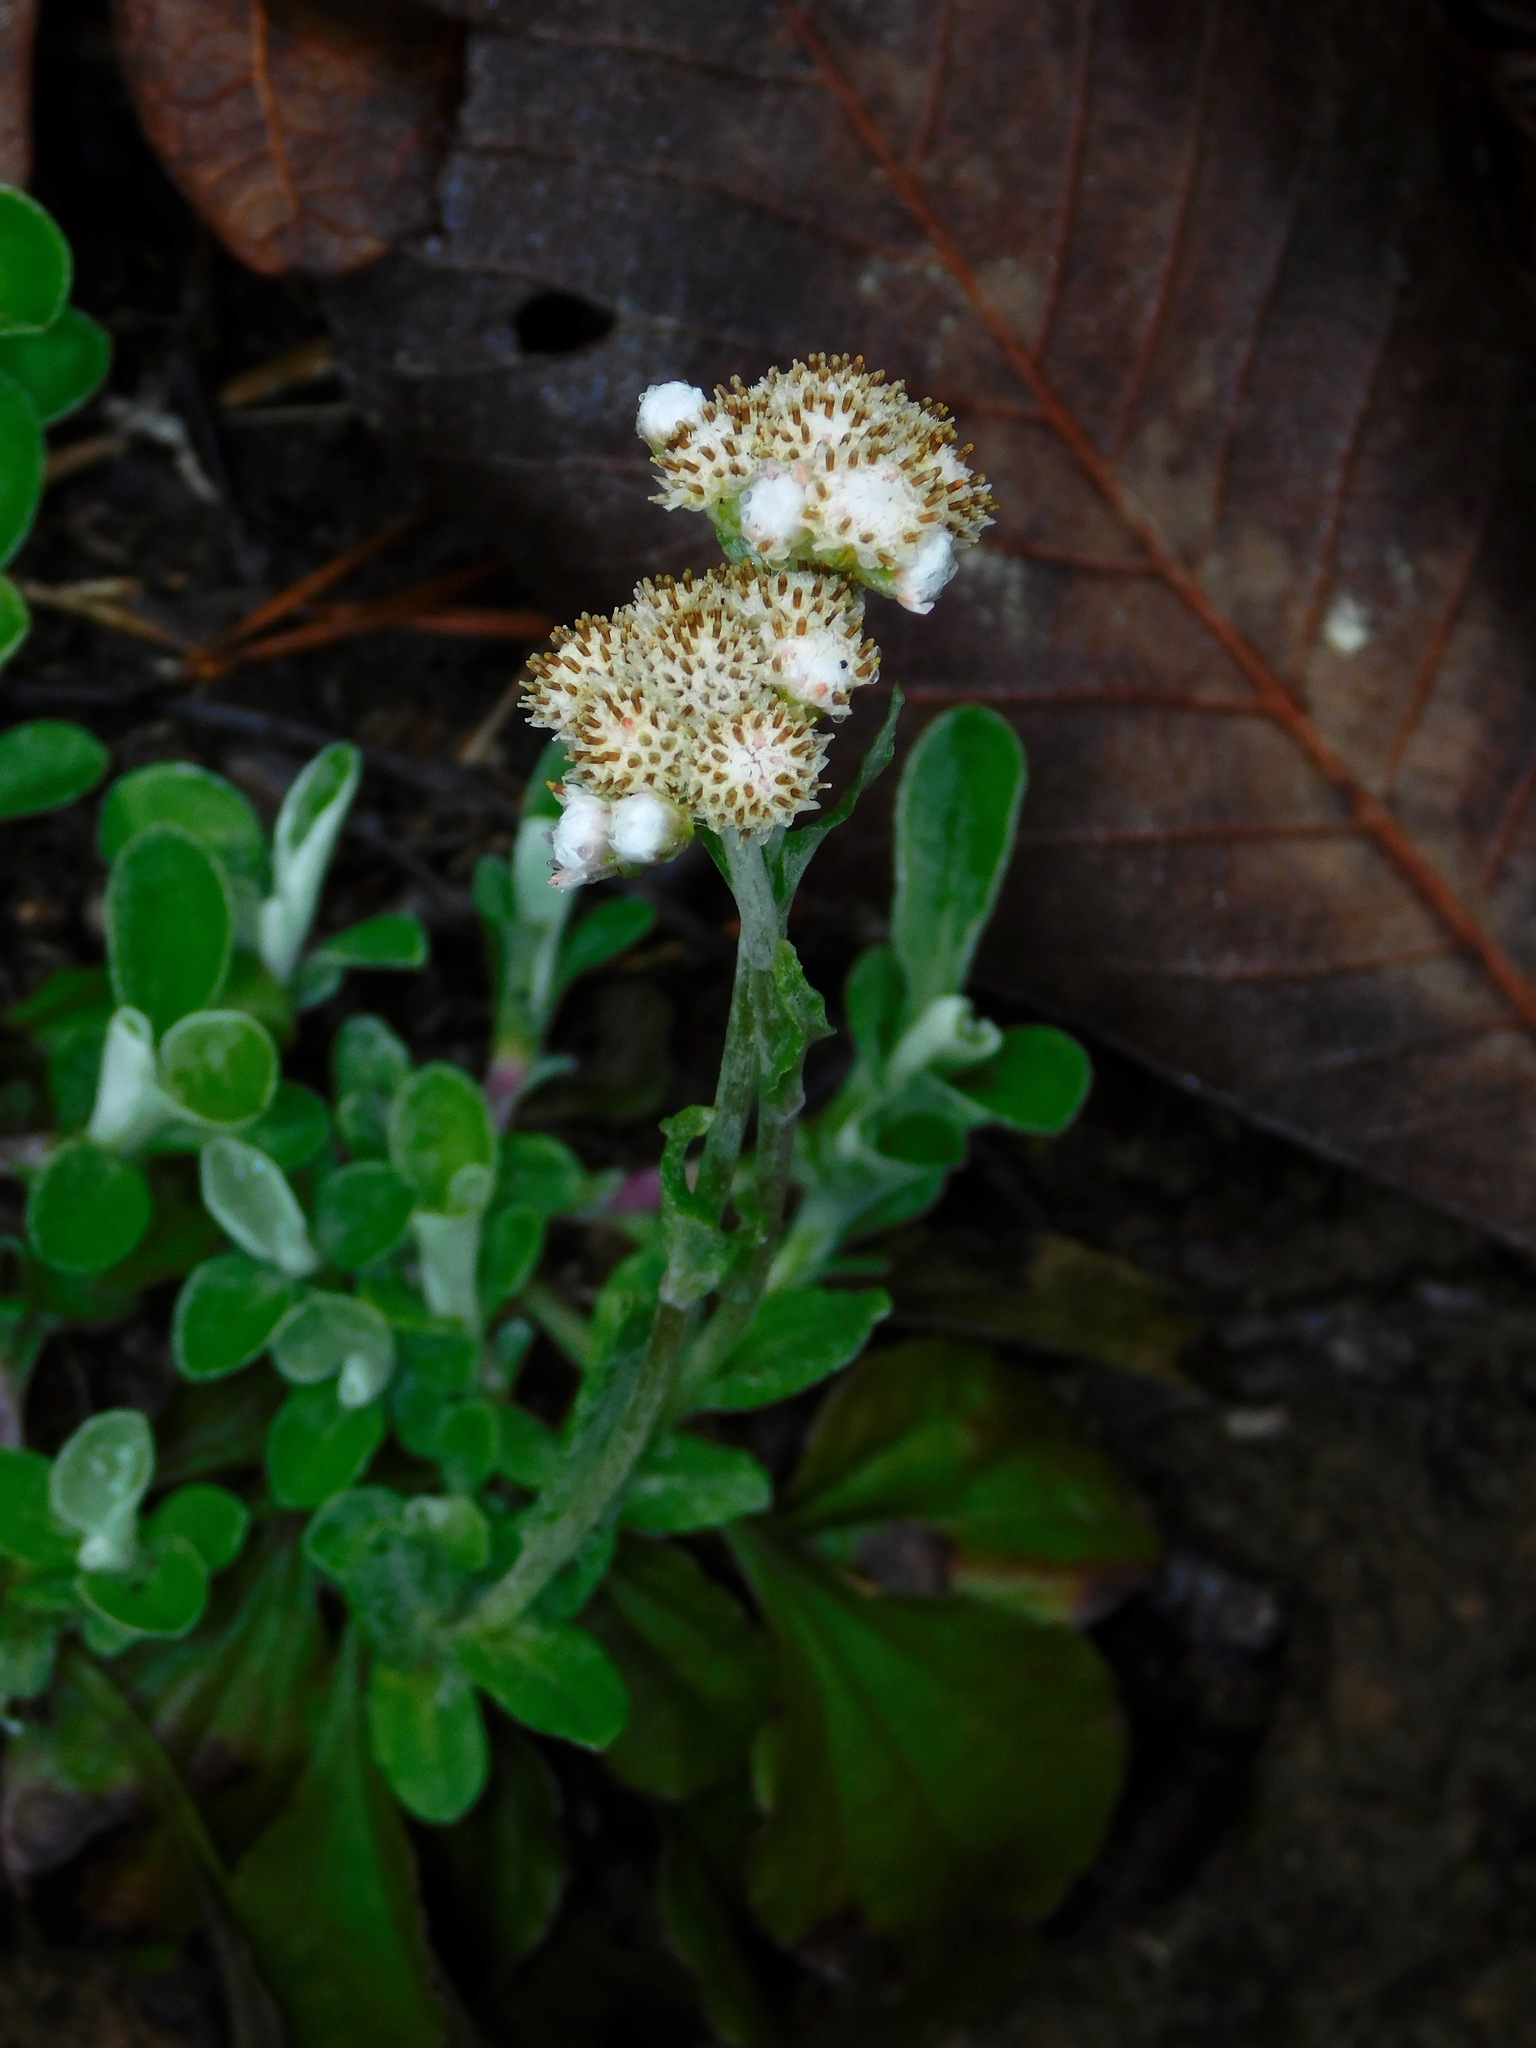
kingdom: Plantae
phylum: Tracheophyta
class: Magnoliopsida
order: Asterales
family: Asteraceae
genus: Antennaria
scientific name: Antennaria plantaginifolia
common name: Plantain-leaved pussytoes
